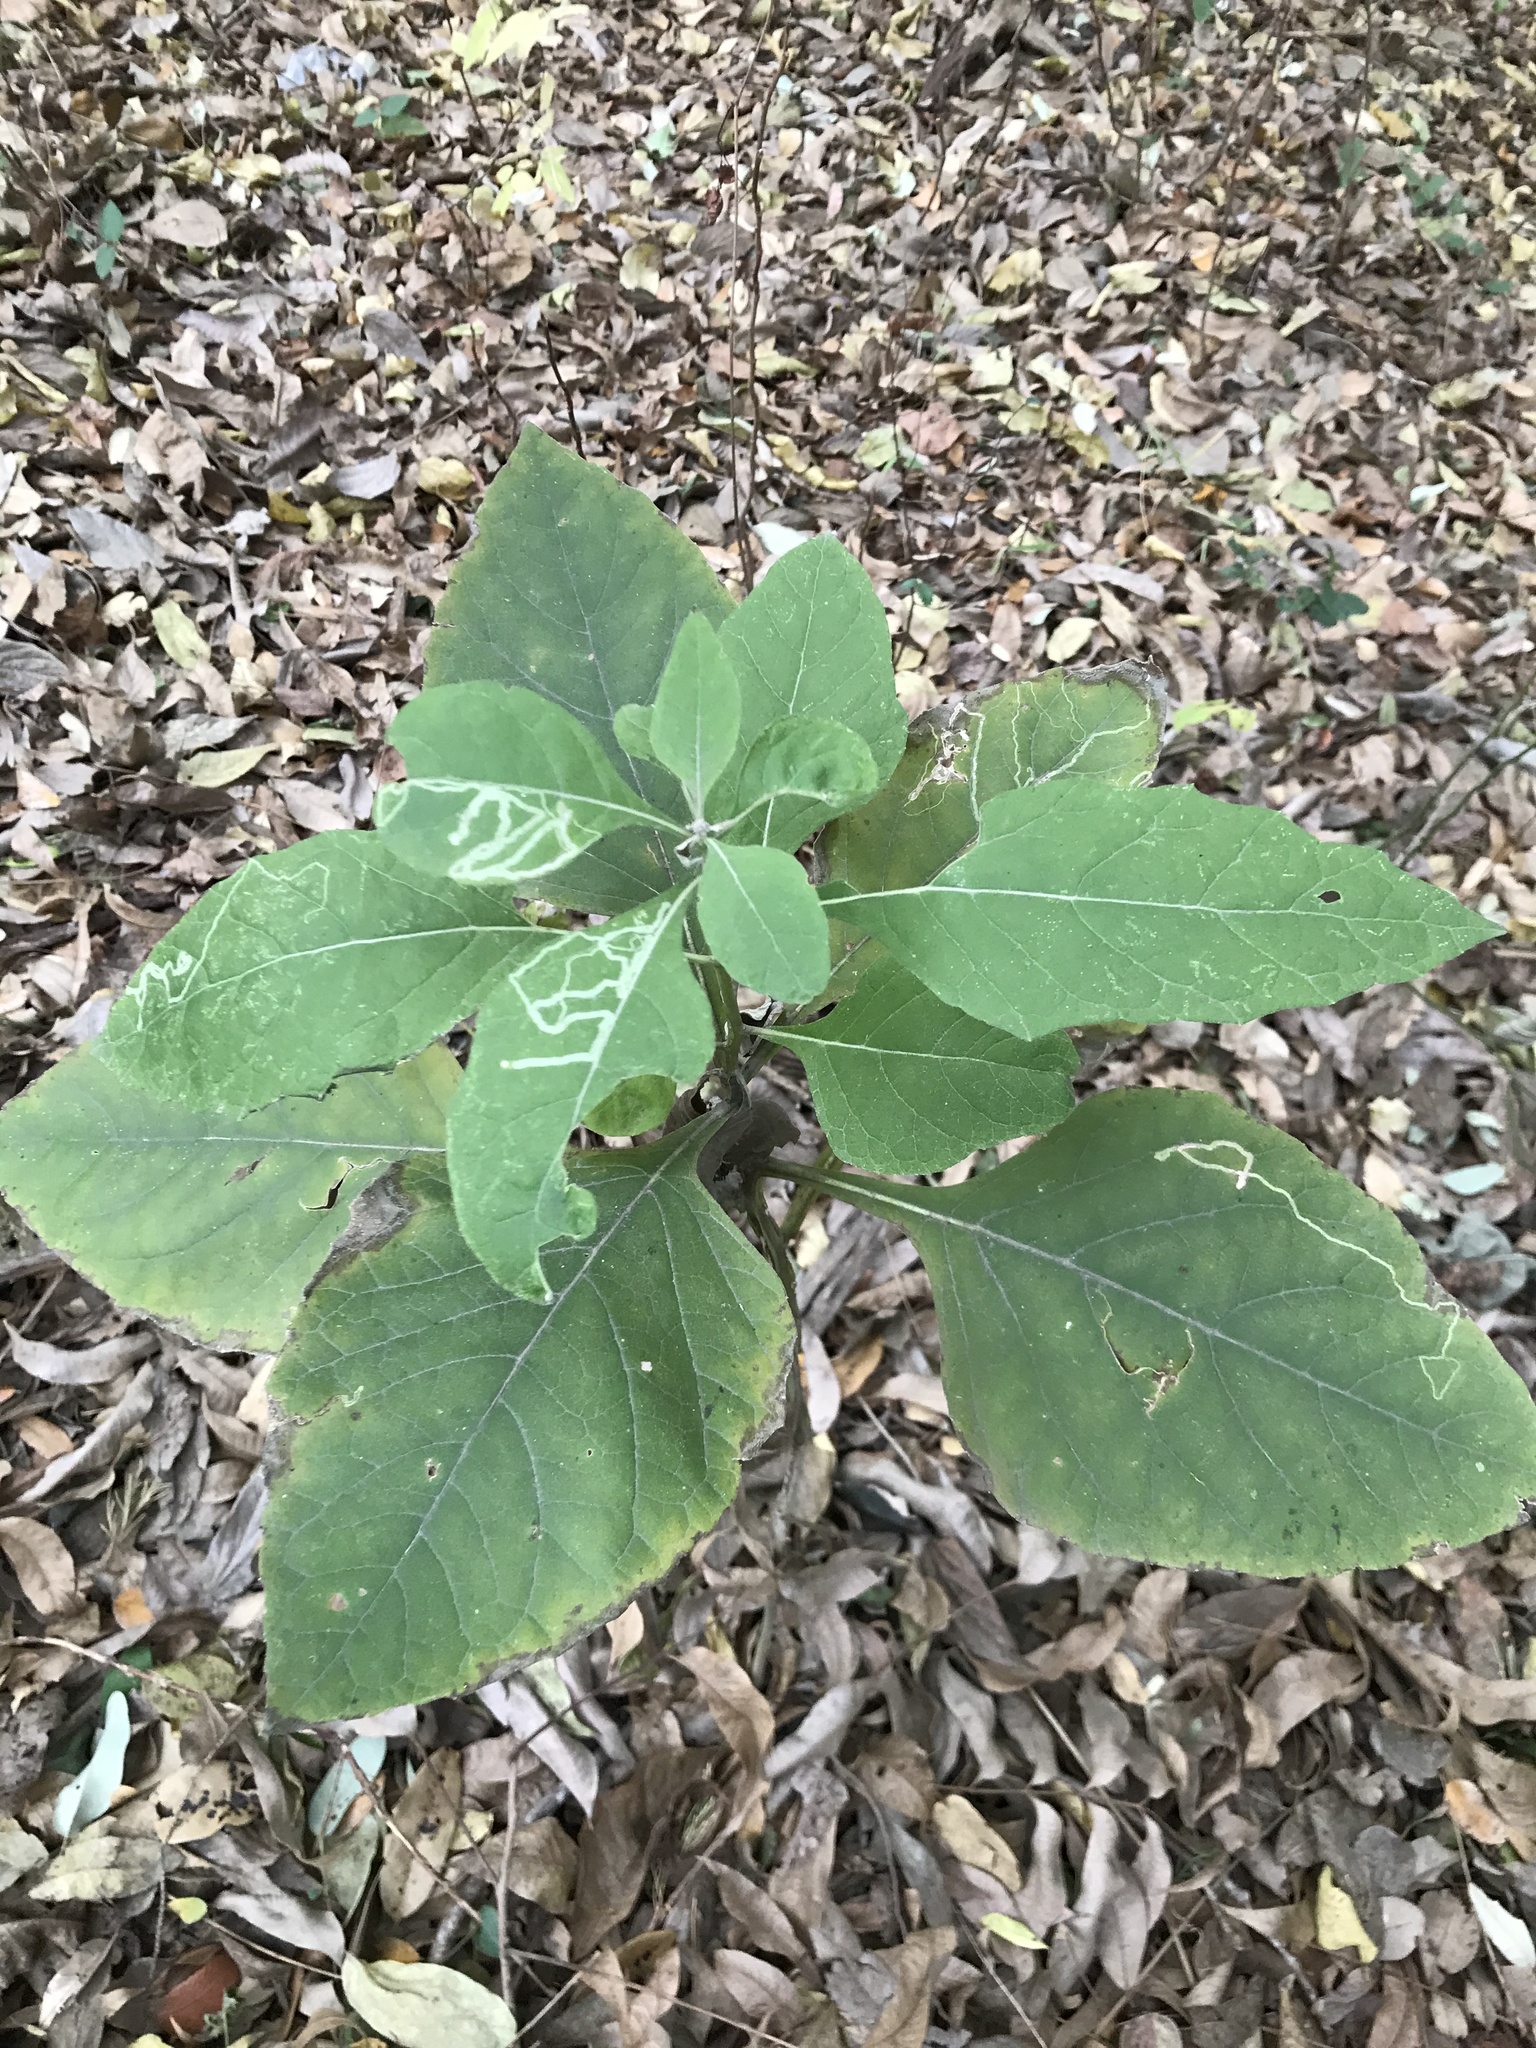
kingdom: Plantae
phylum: Tracheophyta
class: Magnoliopsida
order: Asterales
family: Asteraceae
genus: Verbesina
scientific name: Verbesina virginica
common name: Frostweed
